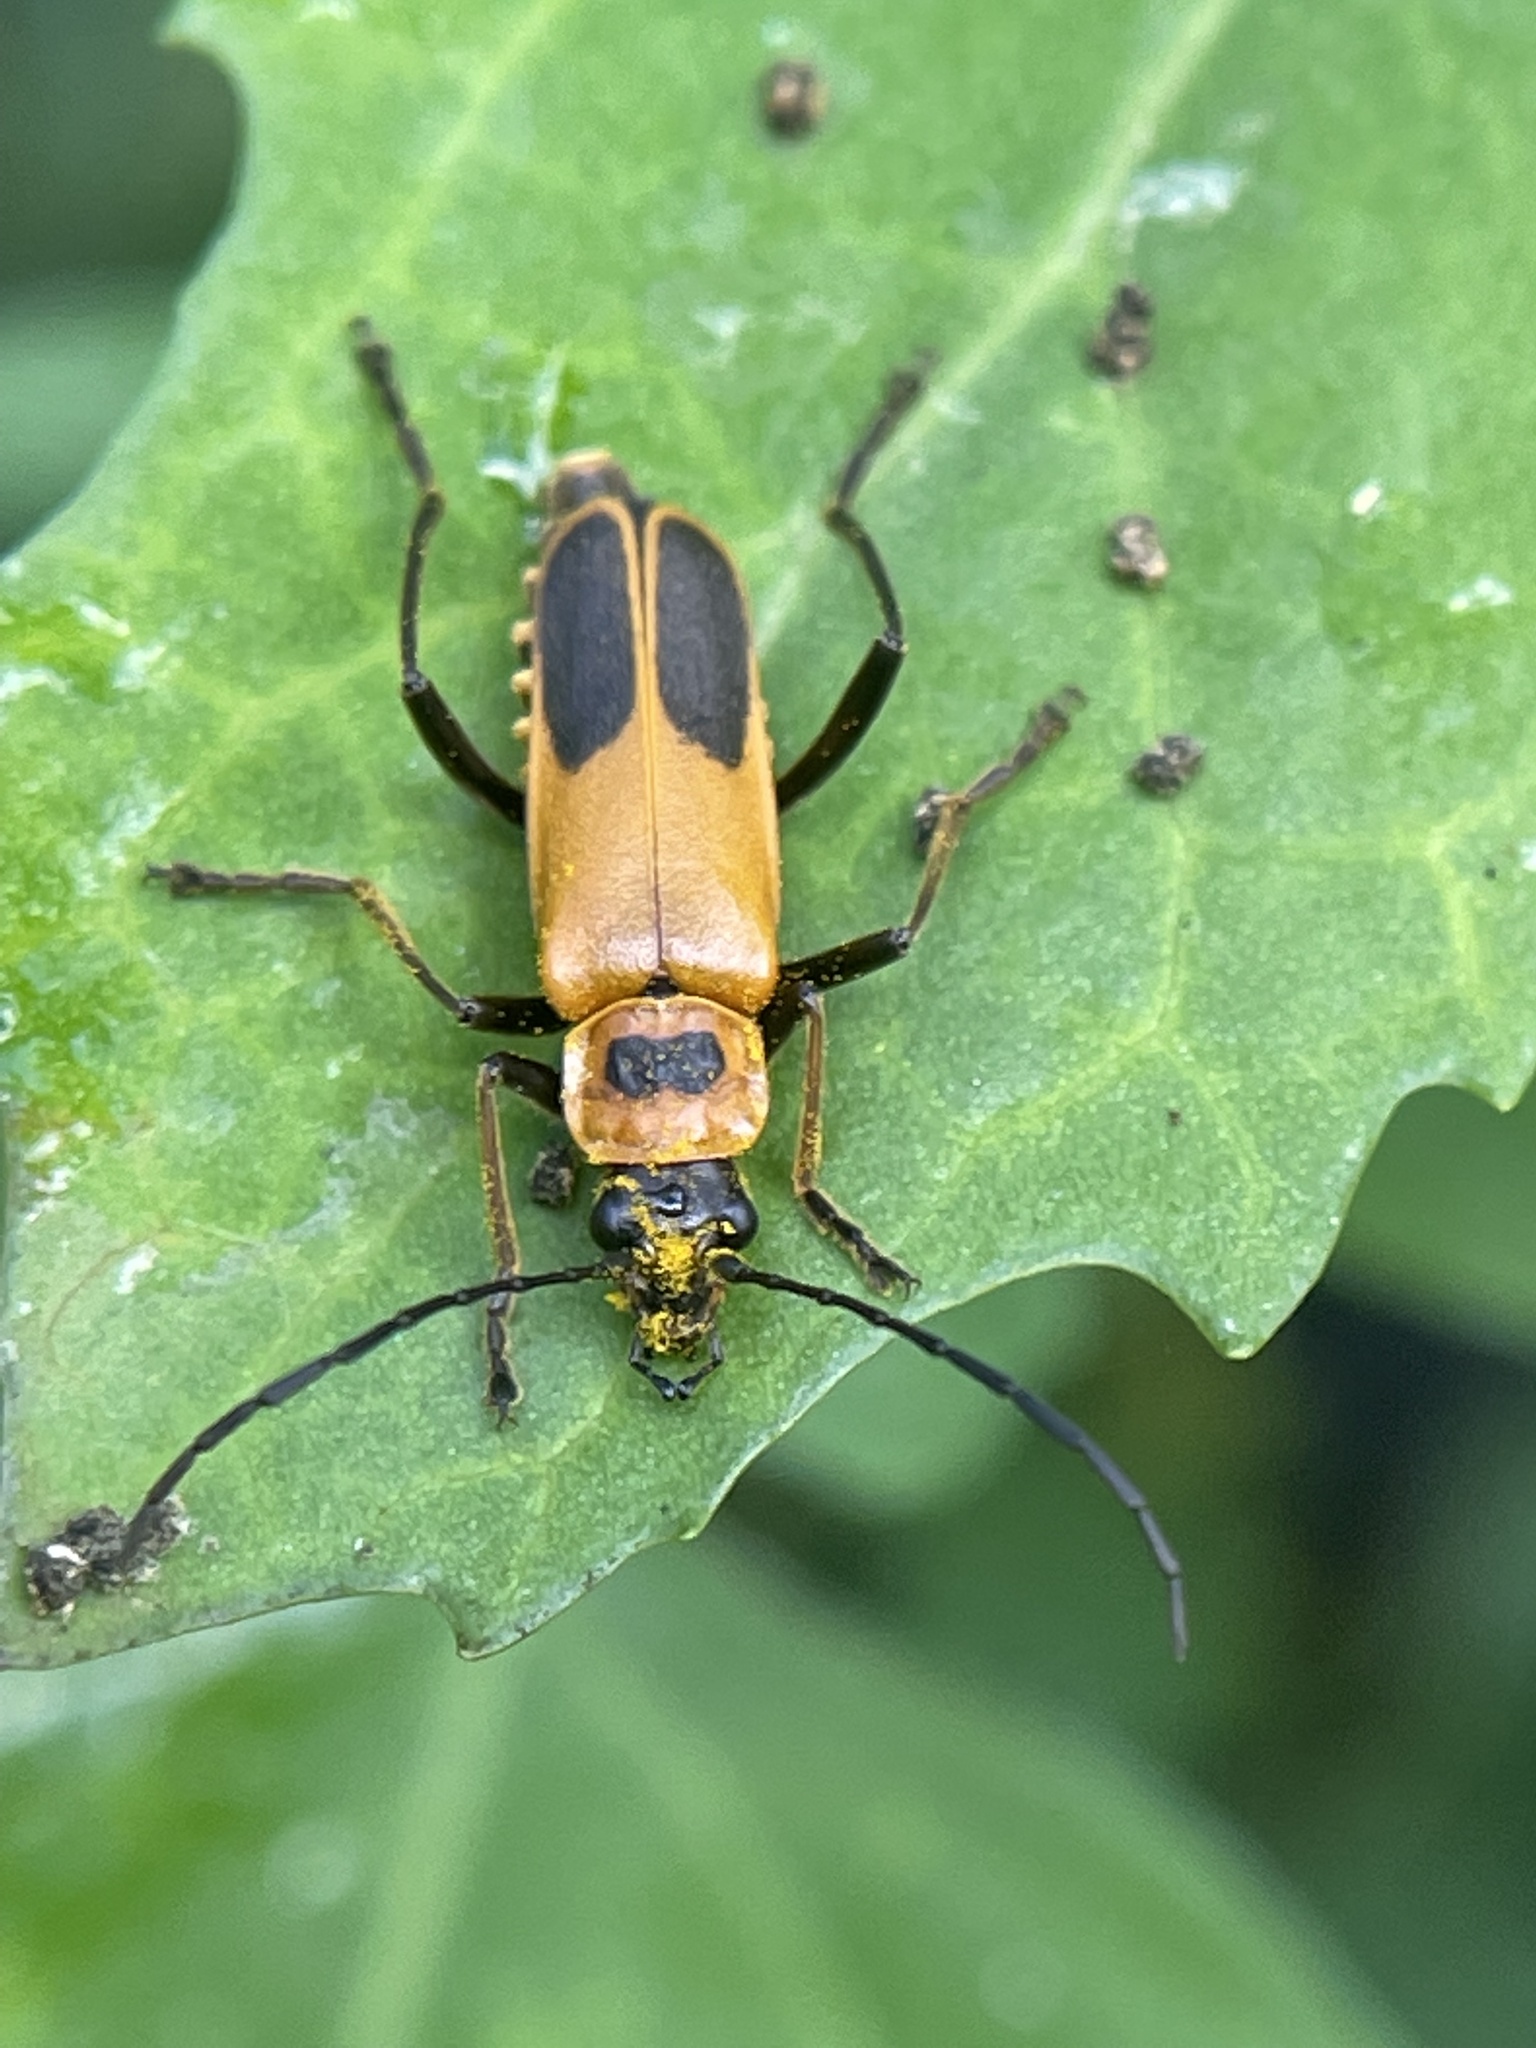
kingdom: Animalia
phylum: Arthropoda
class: Insecta
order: Coleoptera
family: Cantharidae
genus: Chauliognathus
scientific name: Chauliognathus pensylvanicus
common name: Goldenrod soldier beetle
